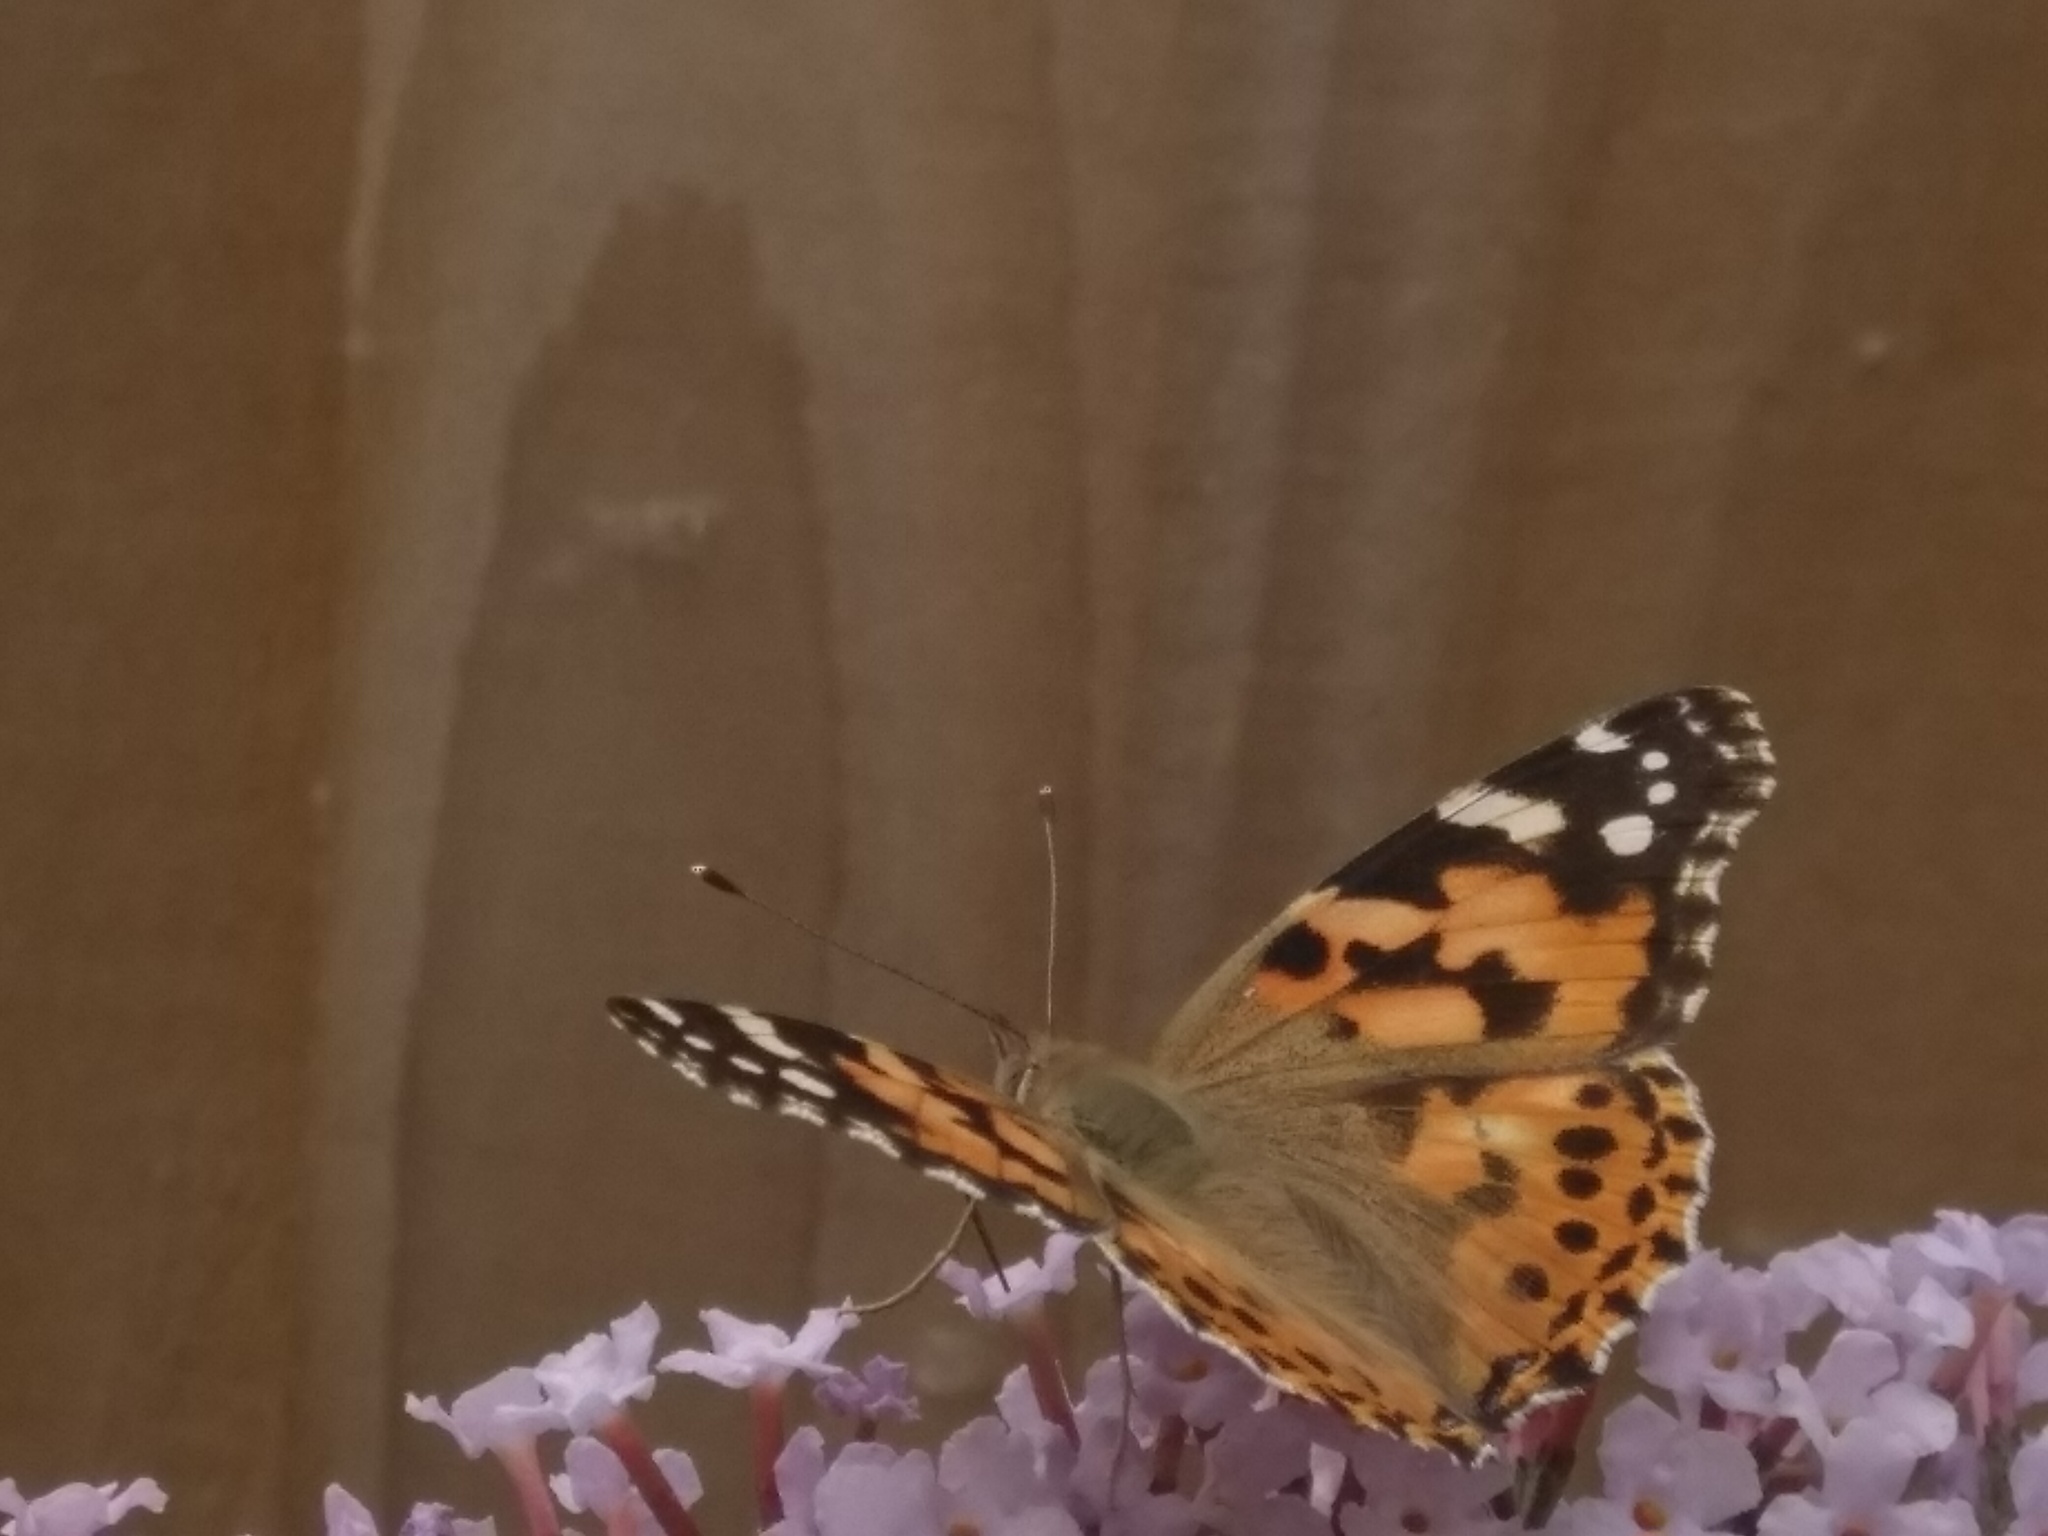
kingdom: Animalia
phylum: Arthropoda
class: Insecta
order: Lepidoptera
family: Nymphalidae
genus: Vanessa
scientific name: Vanessa cardui
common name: Painted lady
